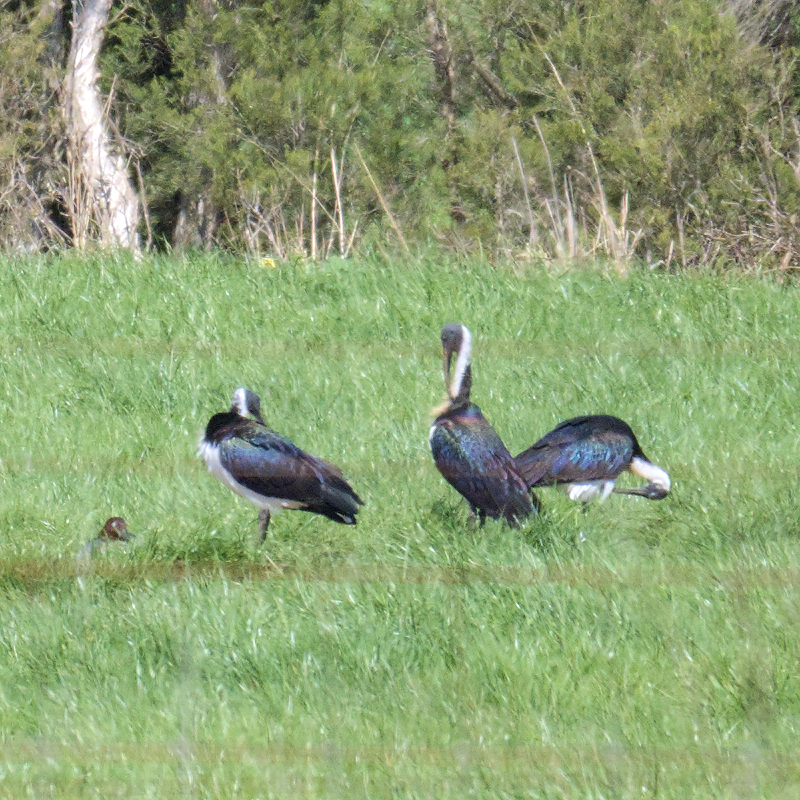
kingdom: Animalia
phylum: Chordata
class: Aves
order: Pelecaniformes
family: Threskiornithidae
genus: Threskiornis
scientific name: Threskiornis spinicollis
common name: Straw-necked ibis
